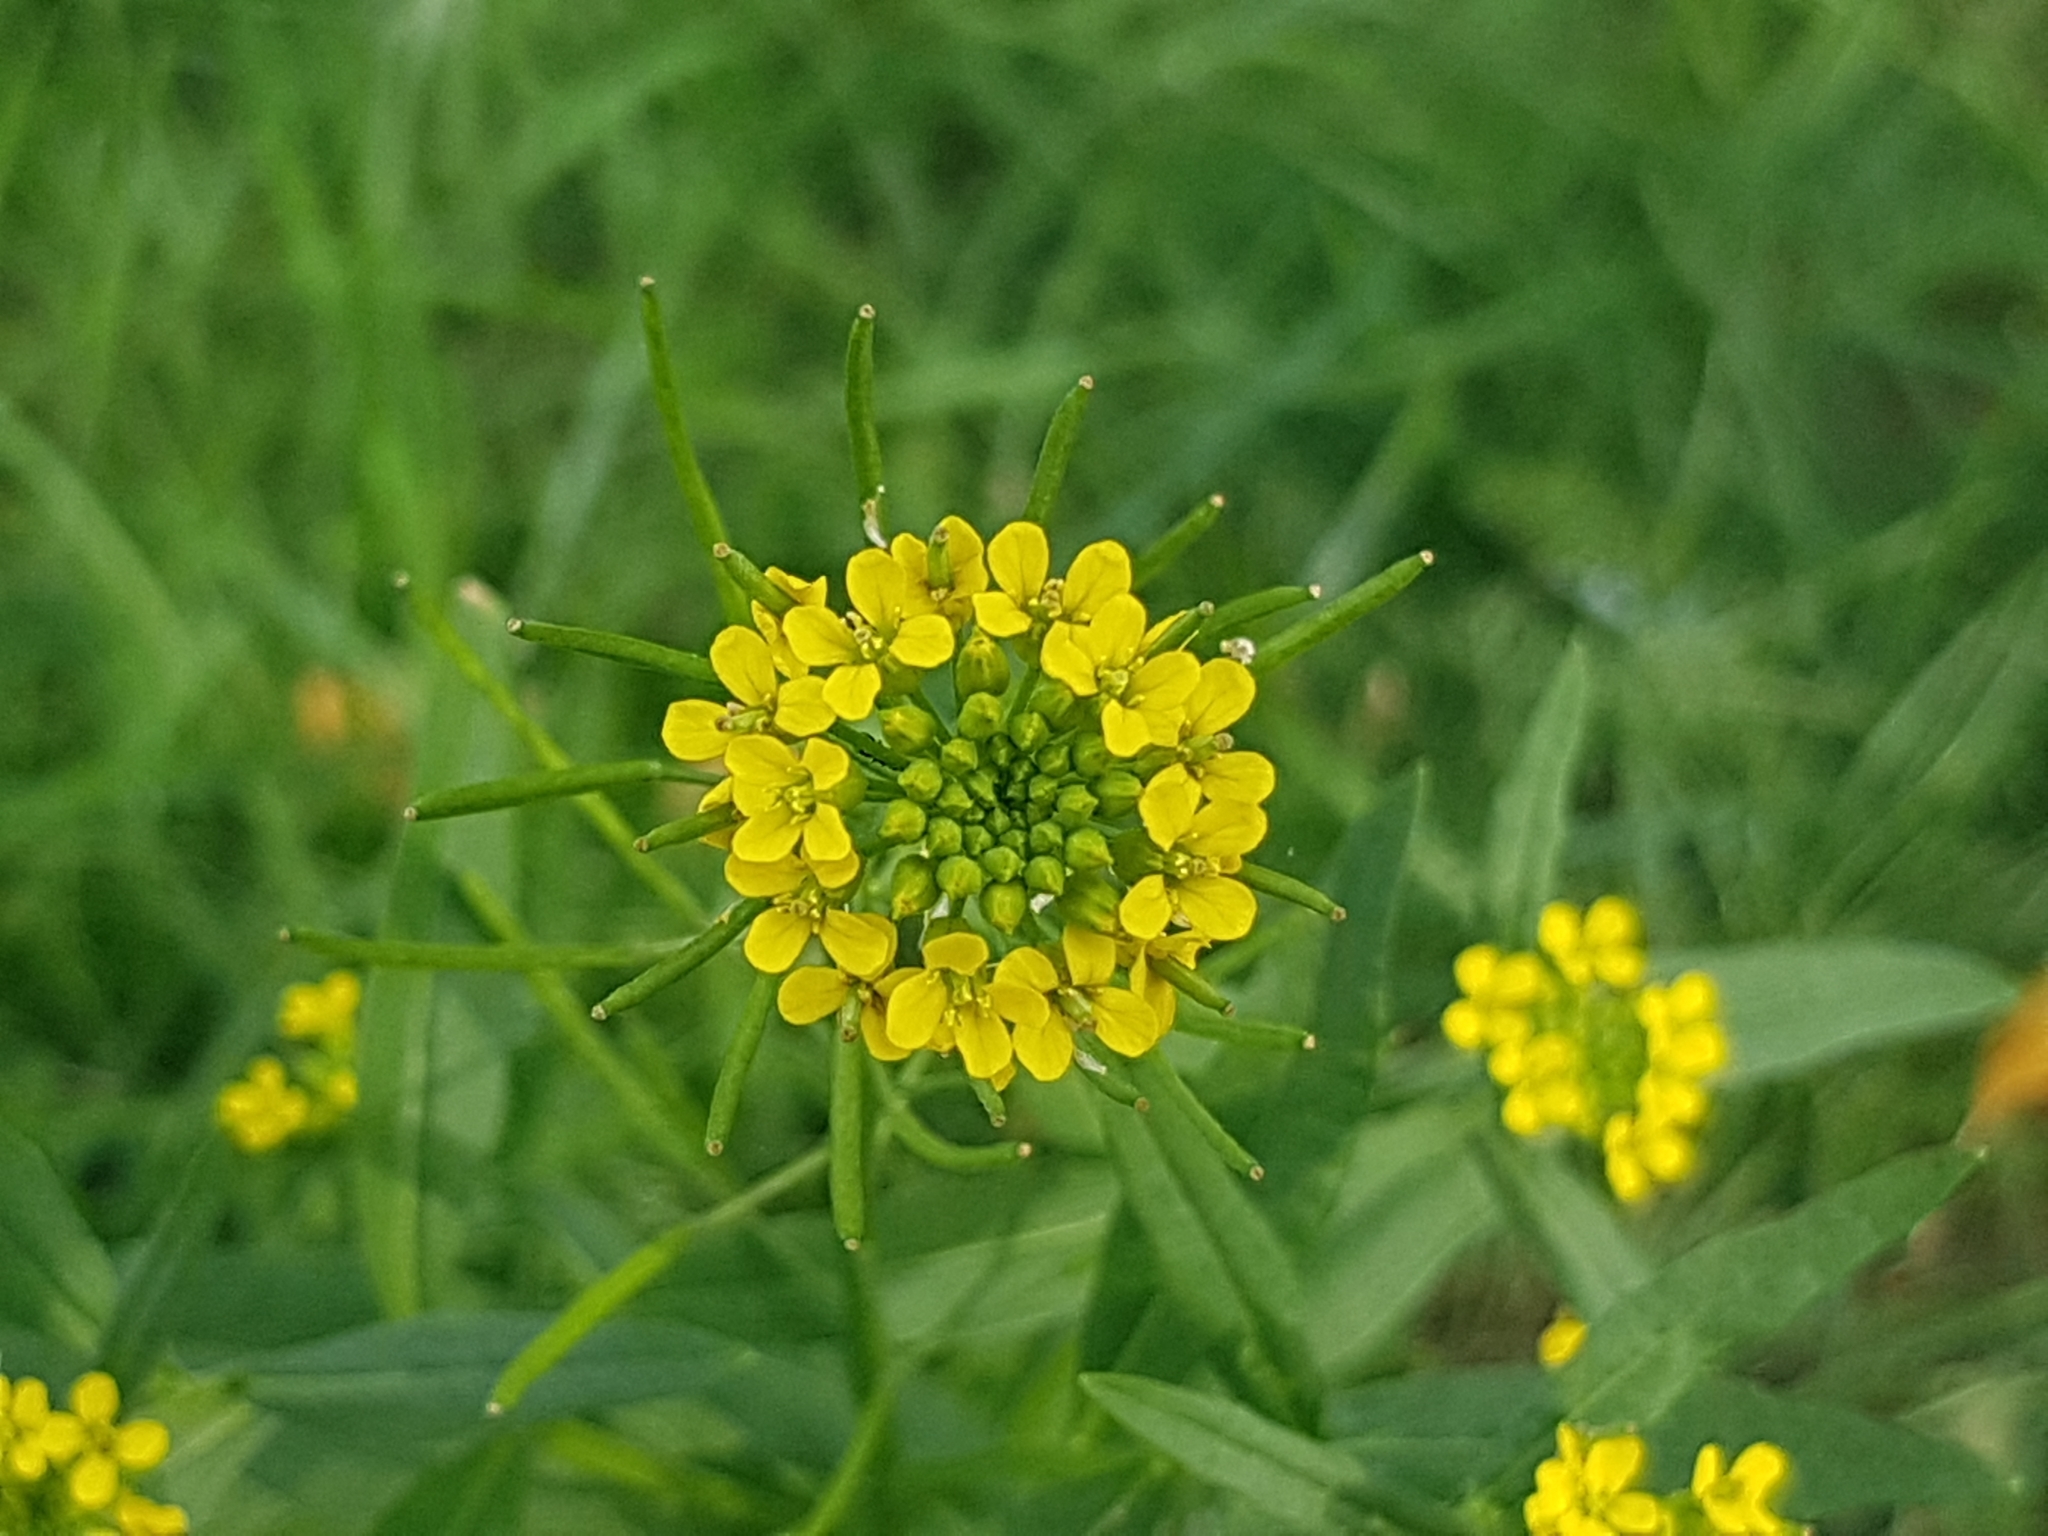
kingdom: Plantae
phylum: Tracheophyta
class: Magnoliopsida
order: Brassicales
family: Brassicaceae
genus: Erysimum
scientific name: Erysimum cheiranthoides
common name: Treacle mustard
